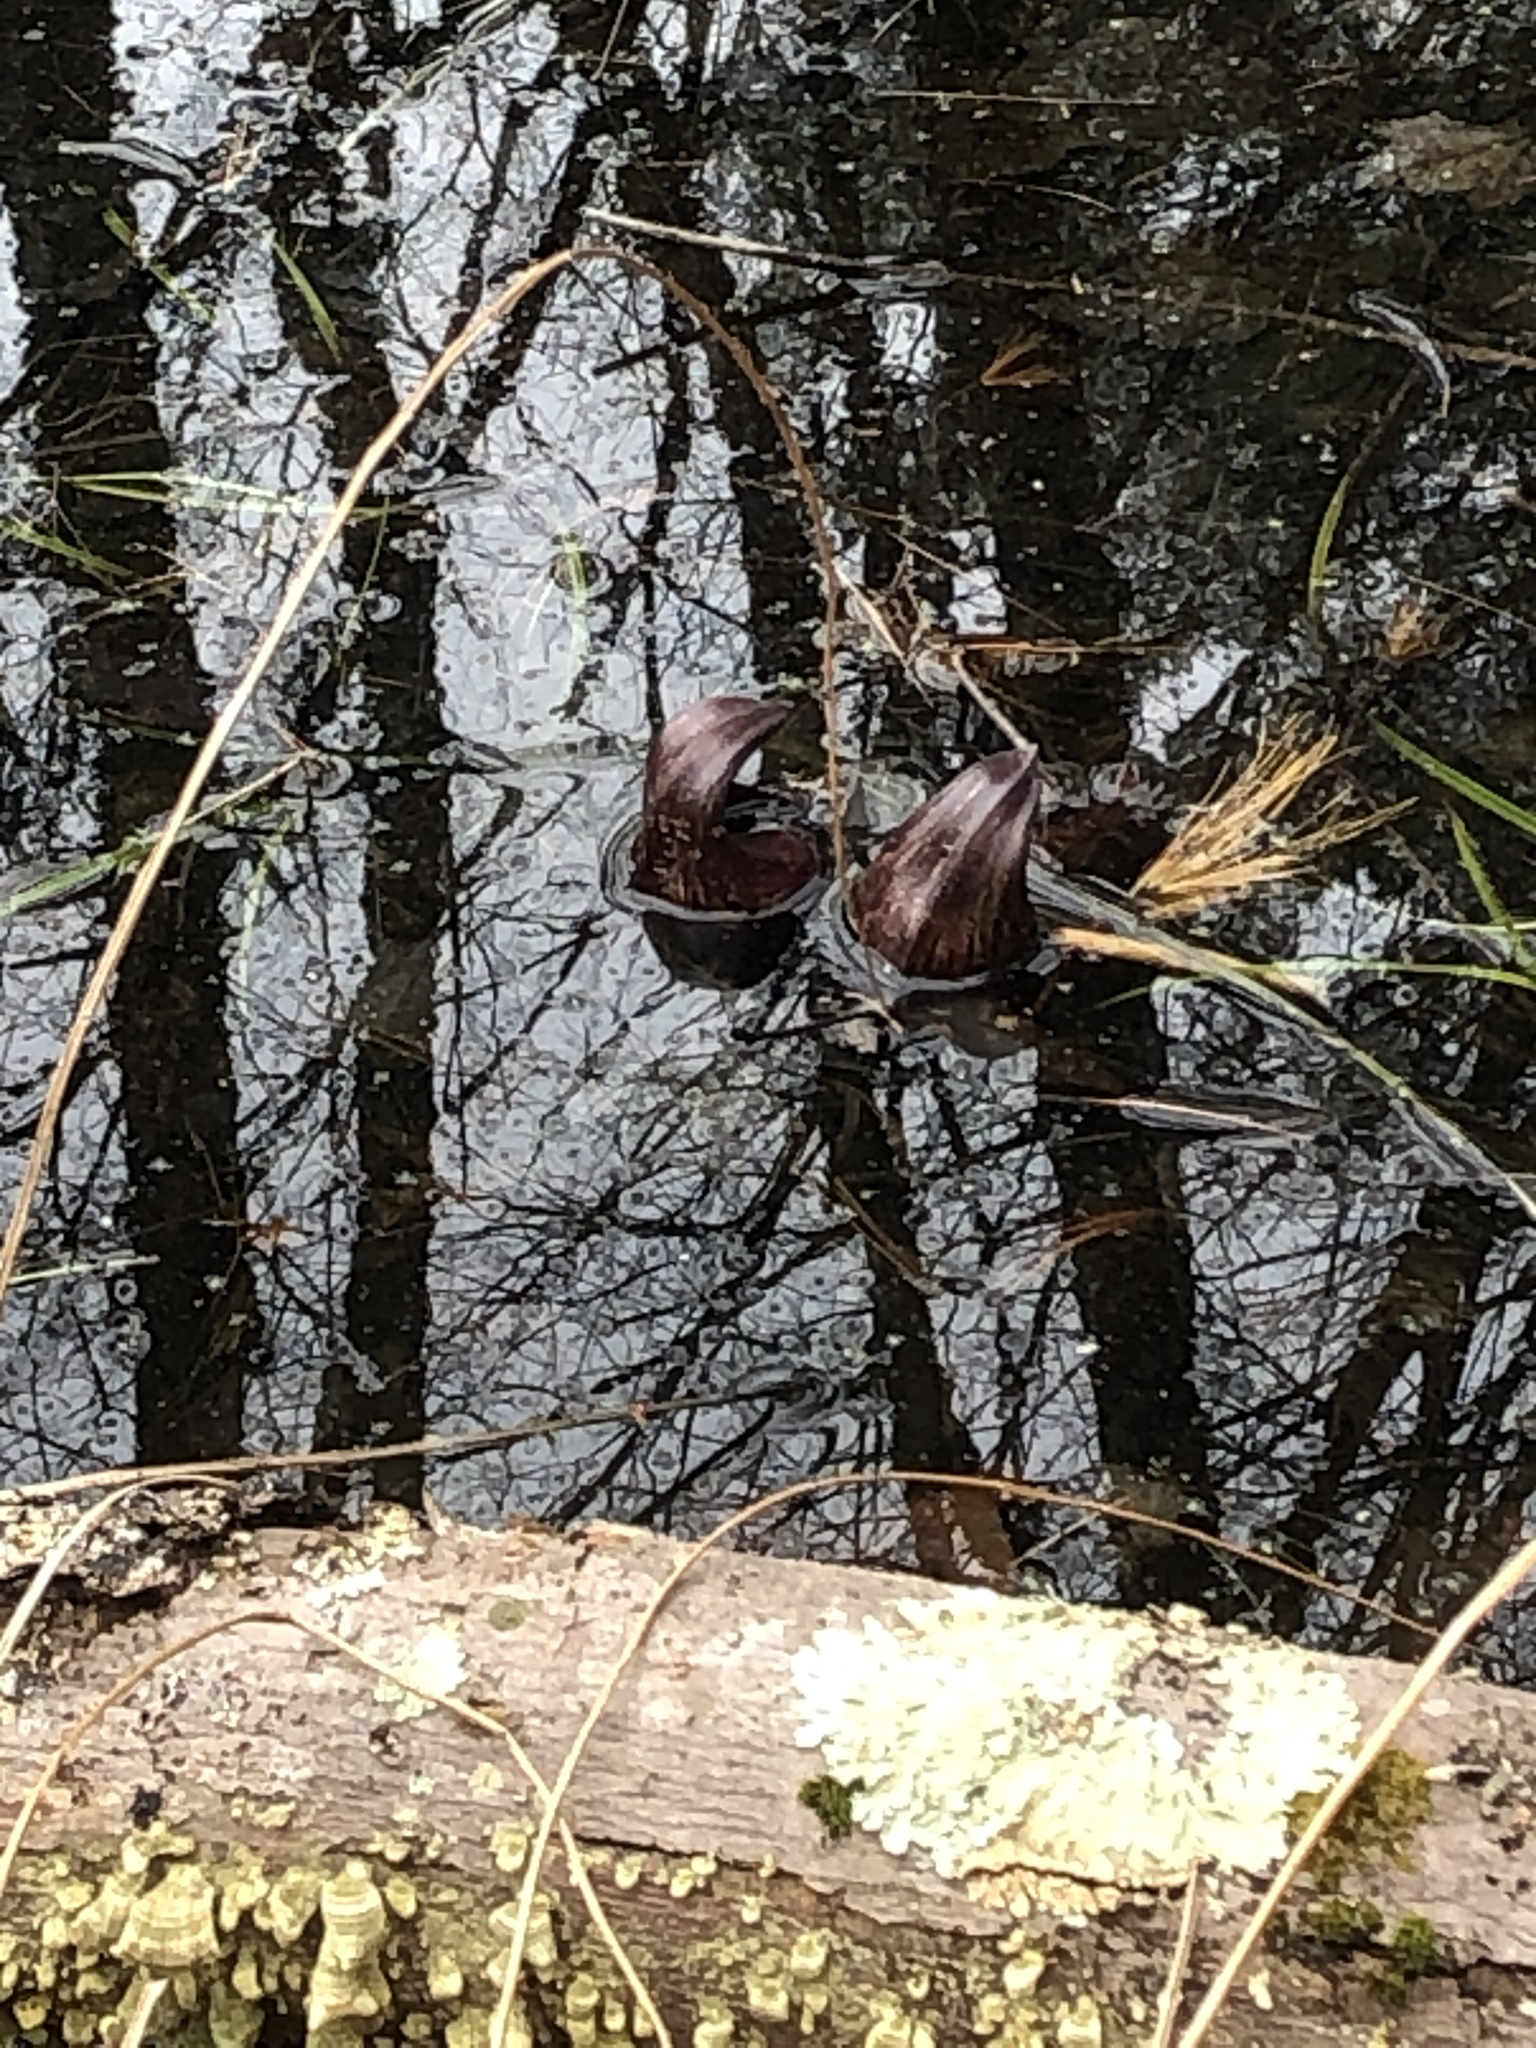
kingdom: Plantae
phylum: Tracheophyta
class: Liliopsida
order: Alismatales
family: Araceae
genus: Symplocarpus
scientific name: Symplocarpus foetidus
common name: Eastern skunk cabbage
